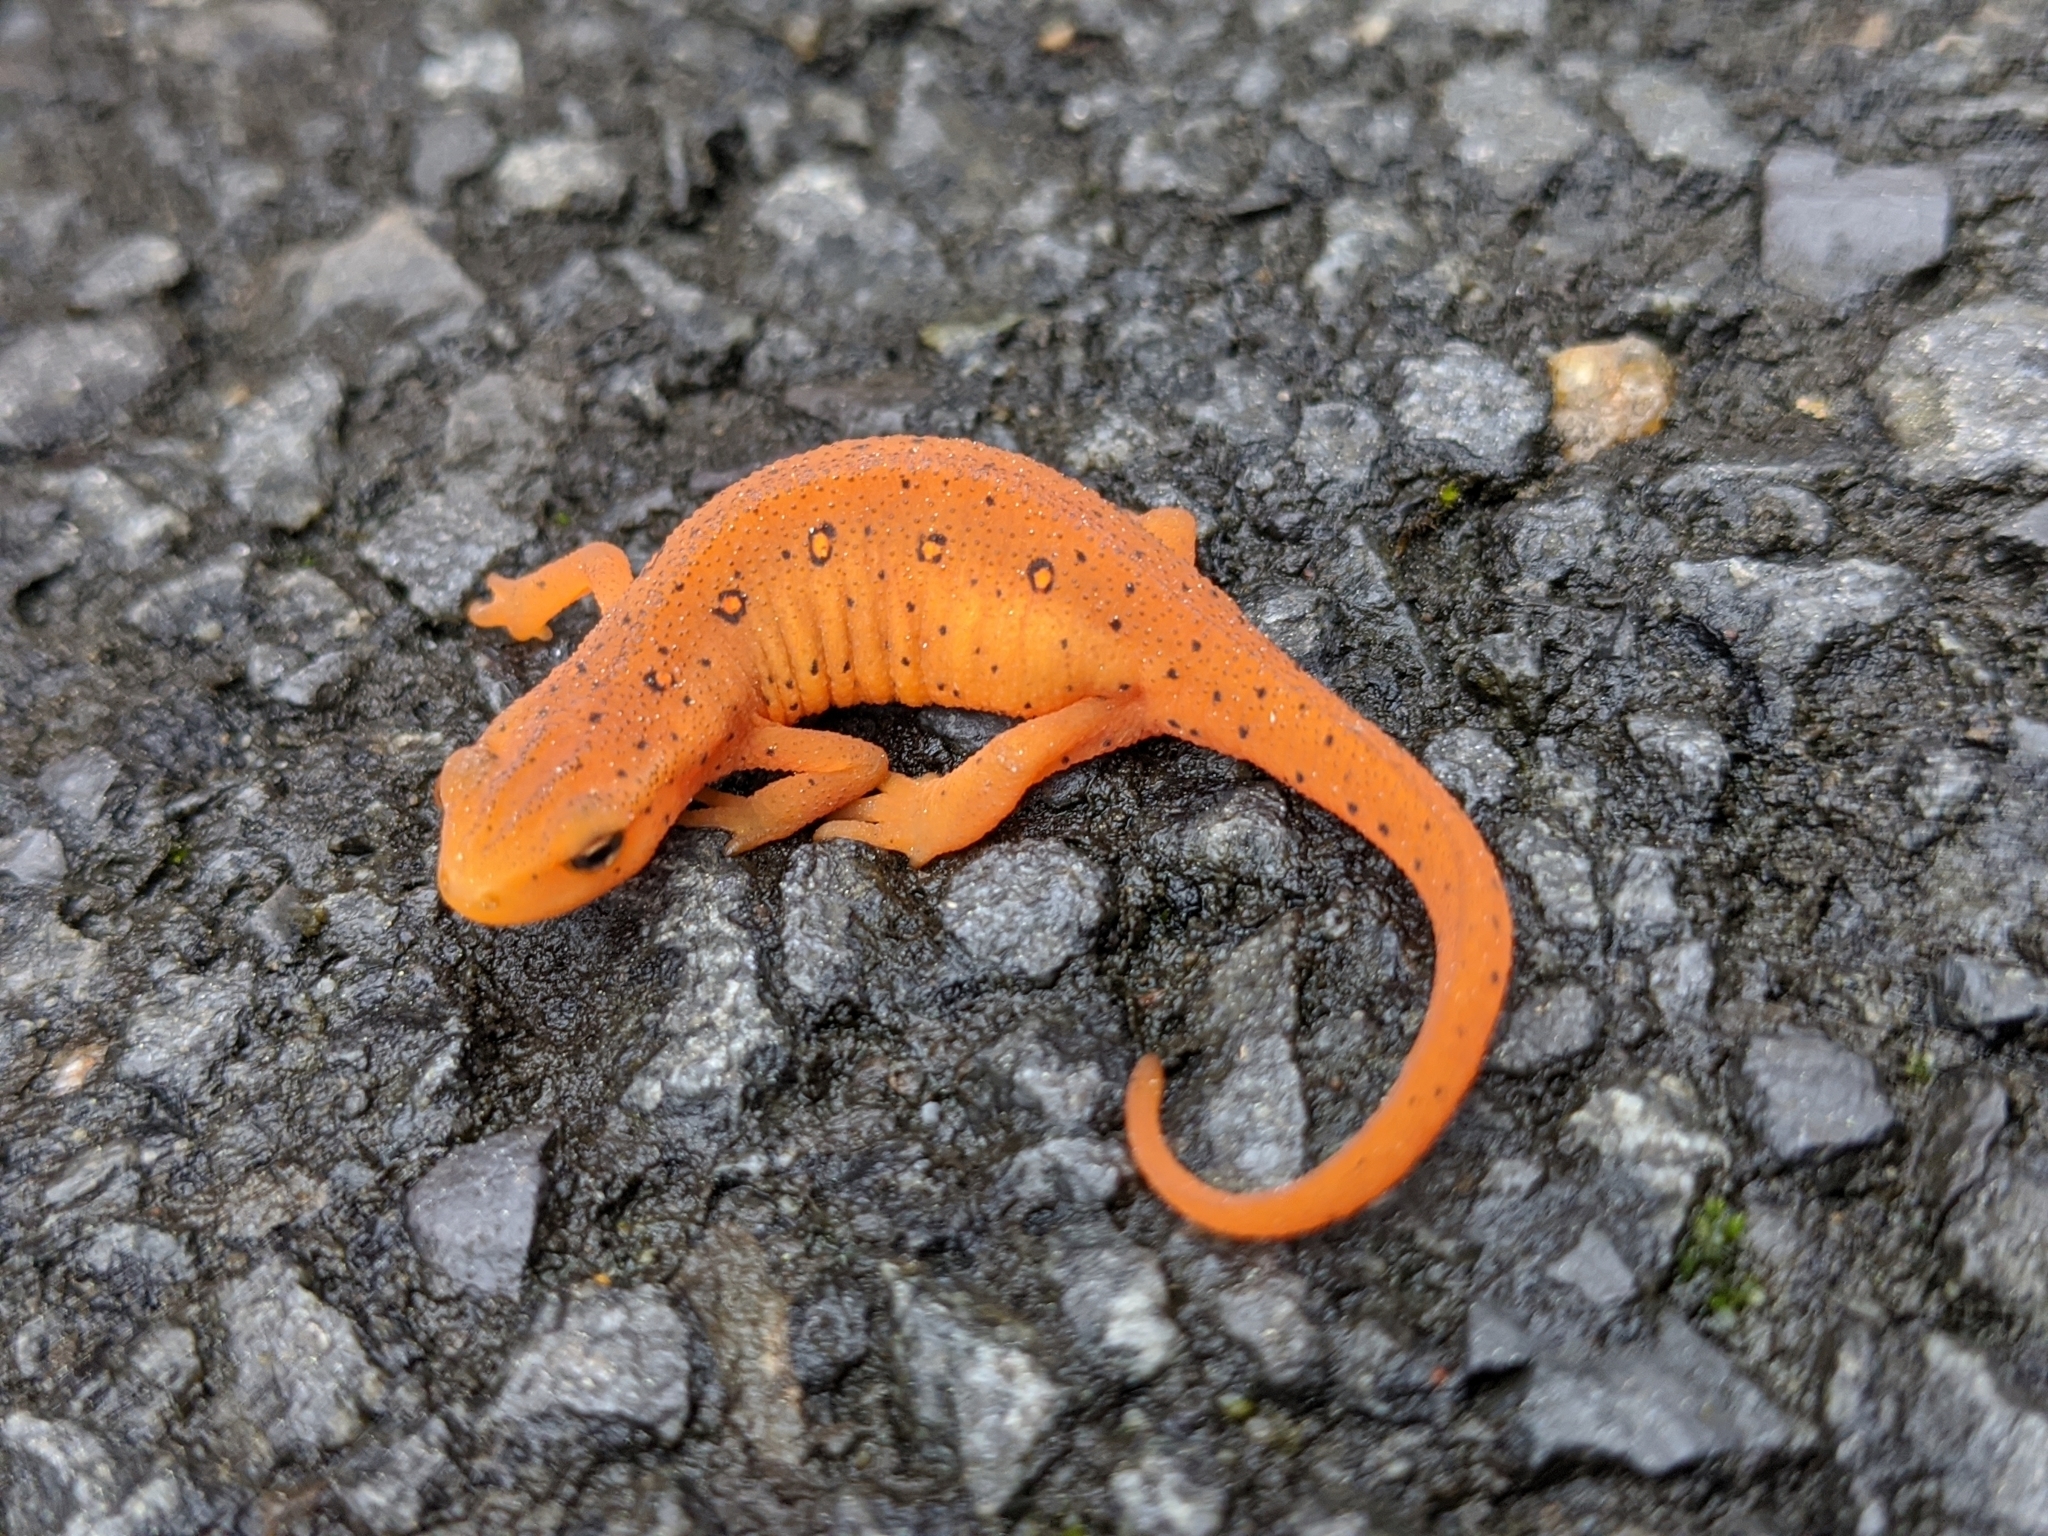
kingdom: Animalia
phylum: Chordata
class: Amphibia
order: Caudata
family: Salamandridae
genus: Notophthalmus
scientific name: Notophthalmus viridescens
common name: Eastern newt
